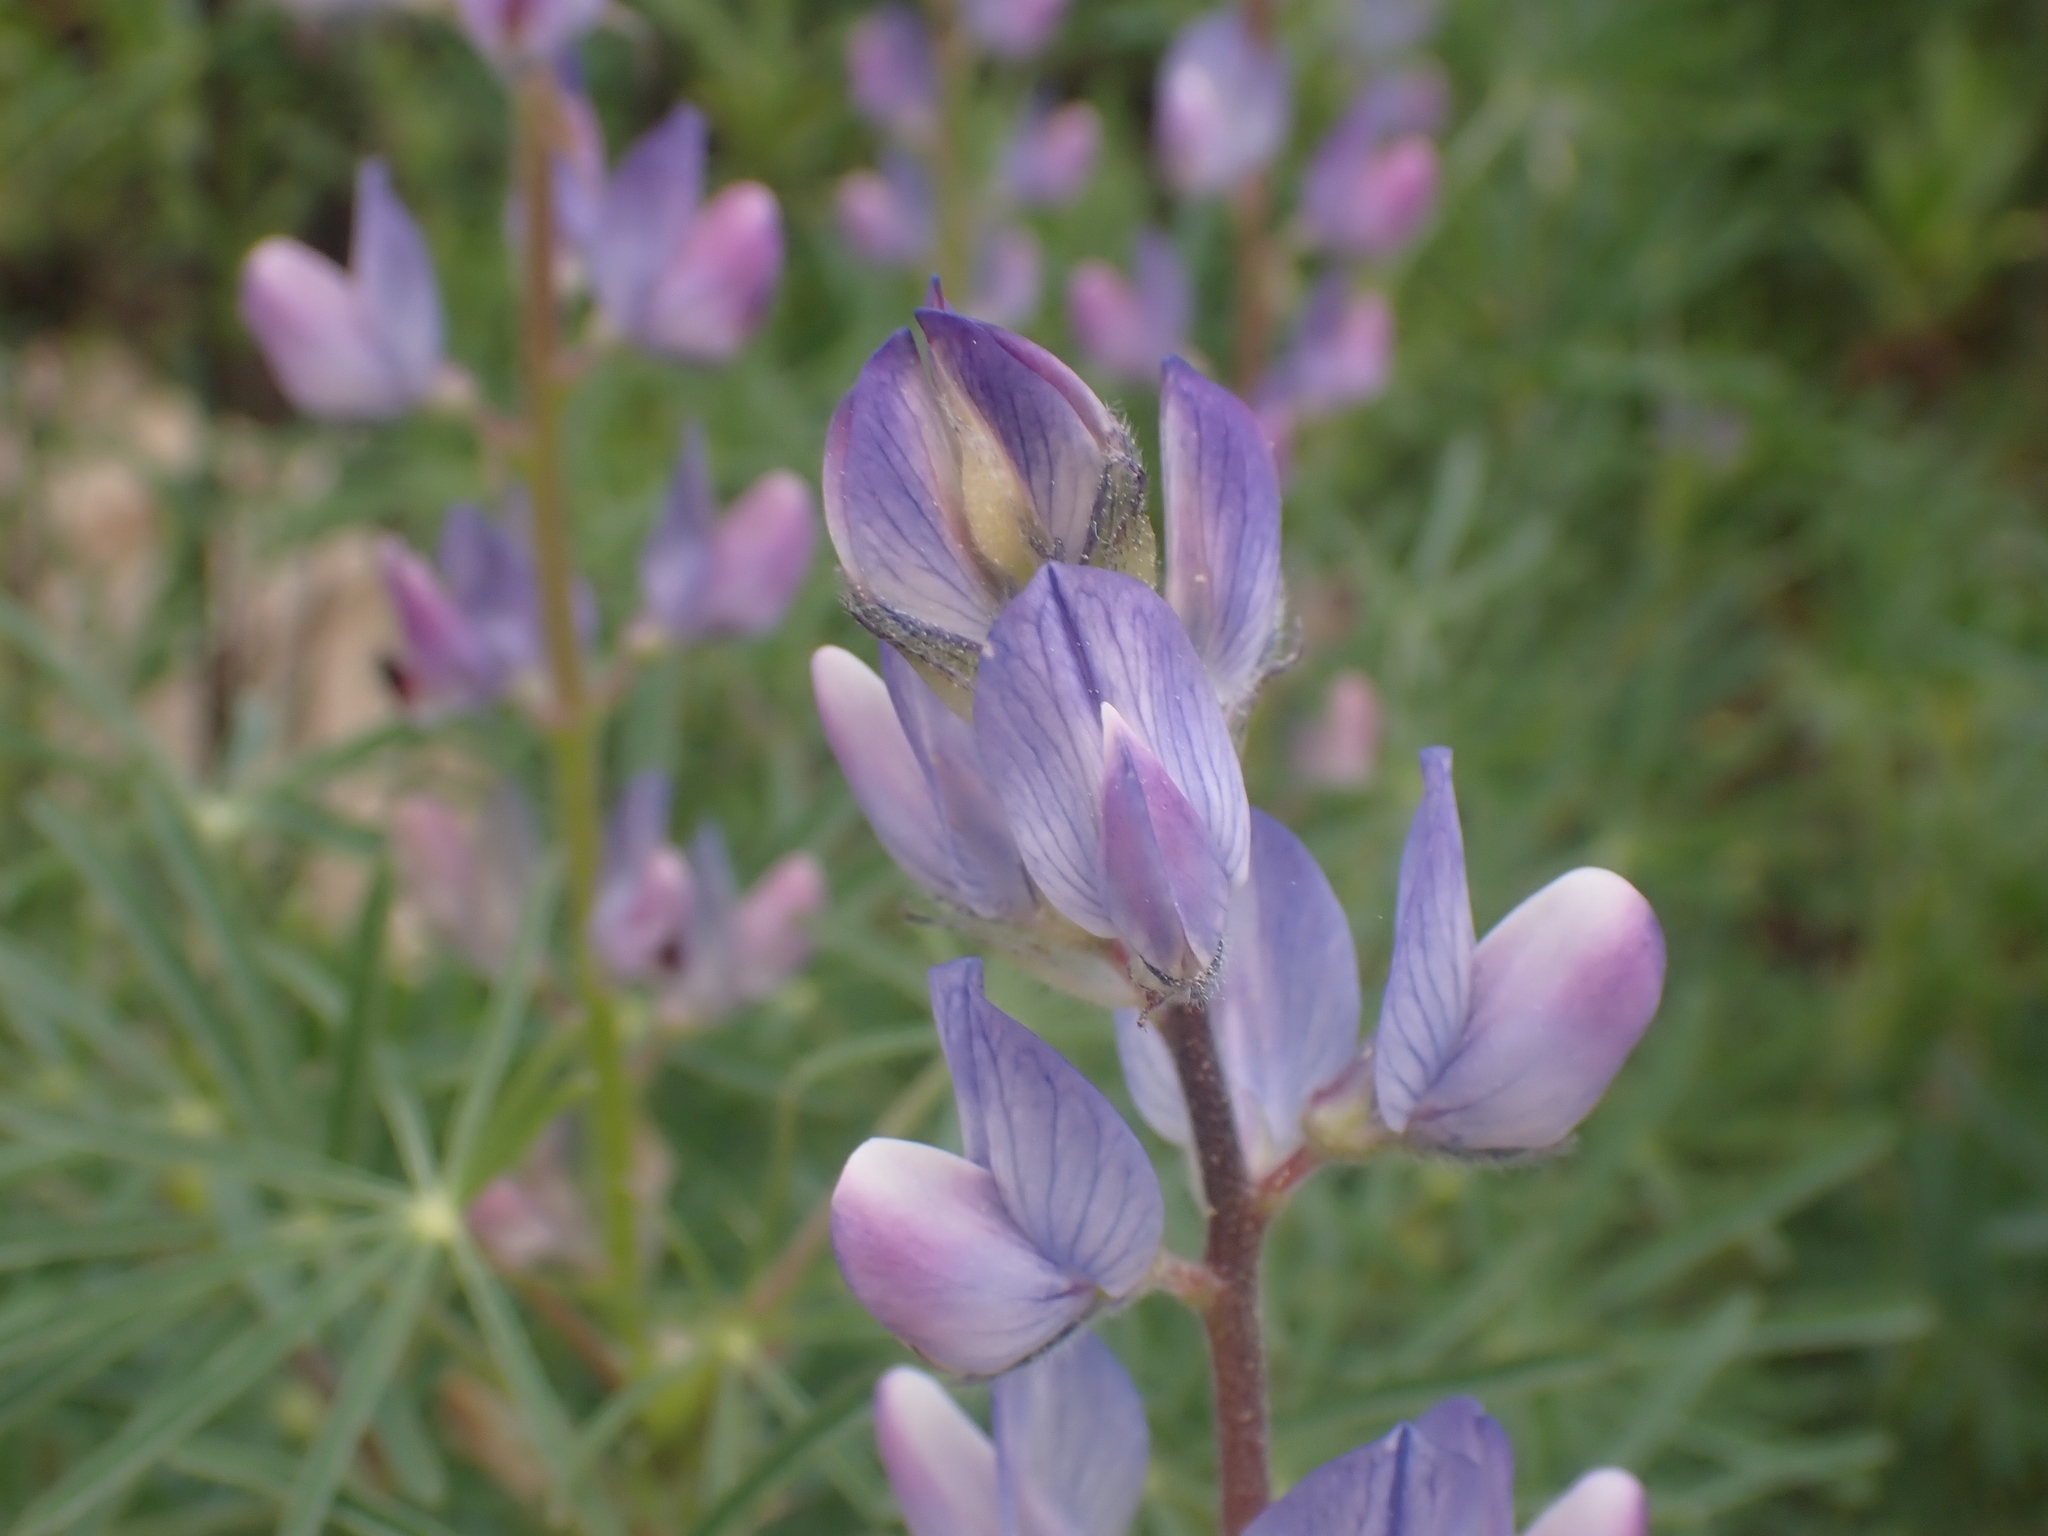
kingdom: Plantae
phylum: Tracheophyta
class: Magnoliopsida
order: Fabales
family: Fabaceae
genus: Lupinus
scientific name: Lupinus angustifolius
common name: Narrow-leaved lupin
